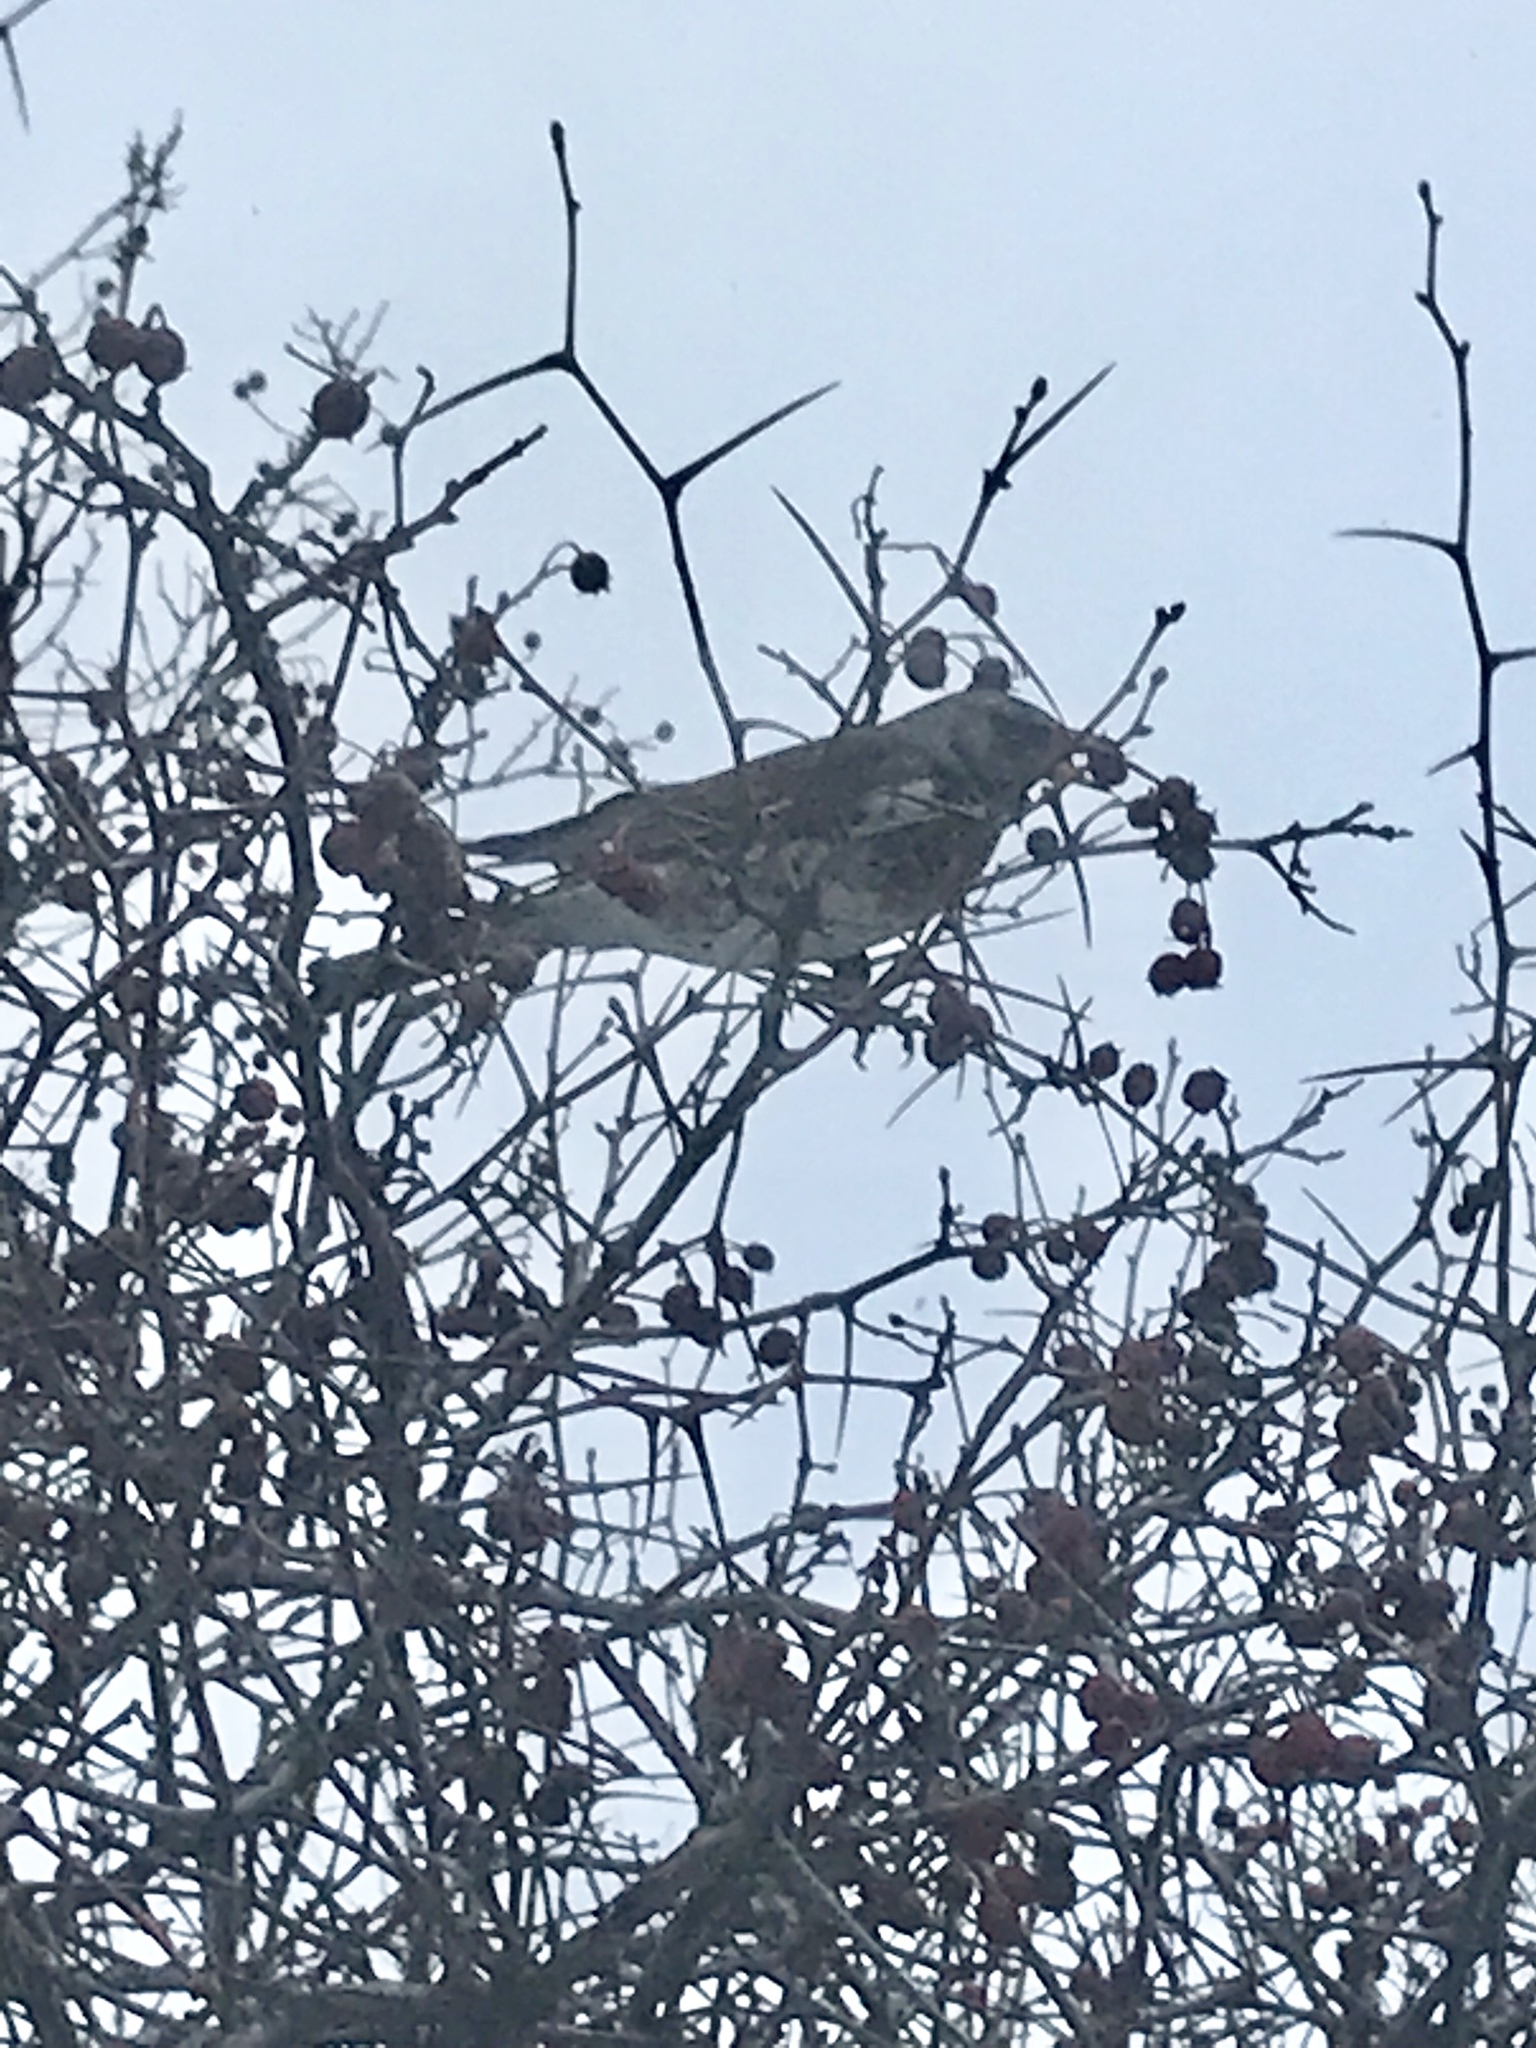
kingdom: Animalia
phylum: Chordata
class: Aves
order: Passeriformes
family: Turdidae
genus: Turdus
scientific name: Turdus pilaris
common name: Fieldfare
